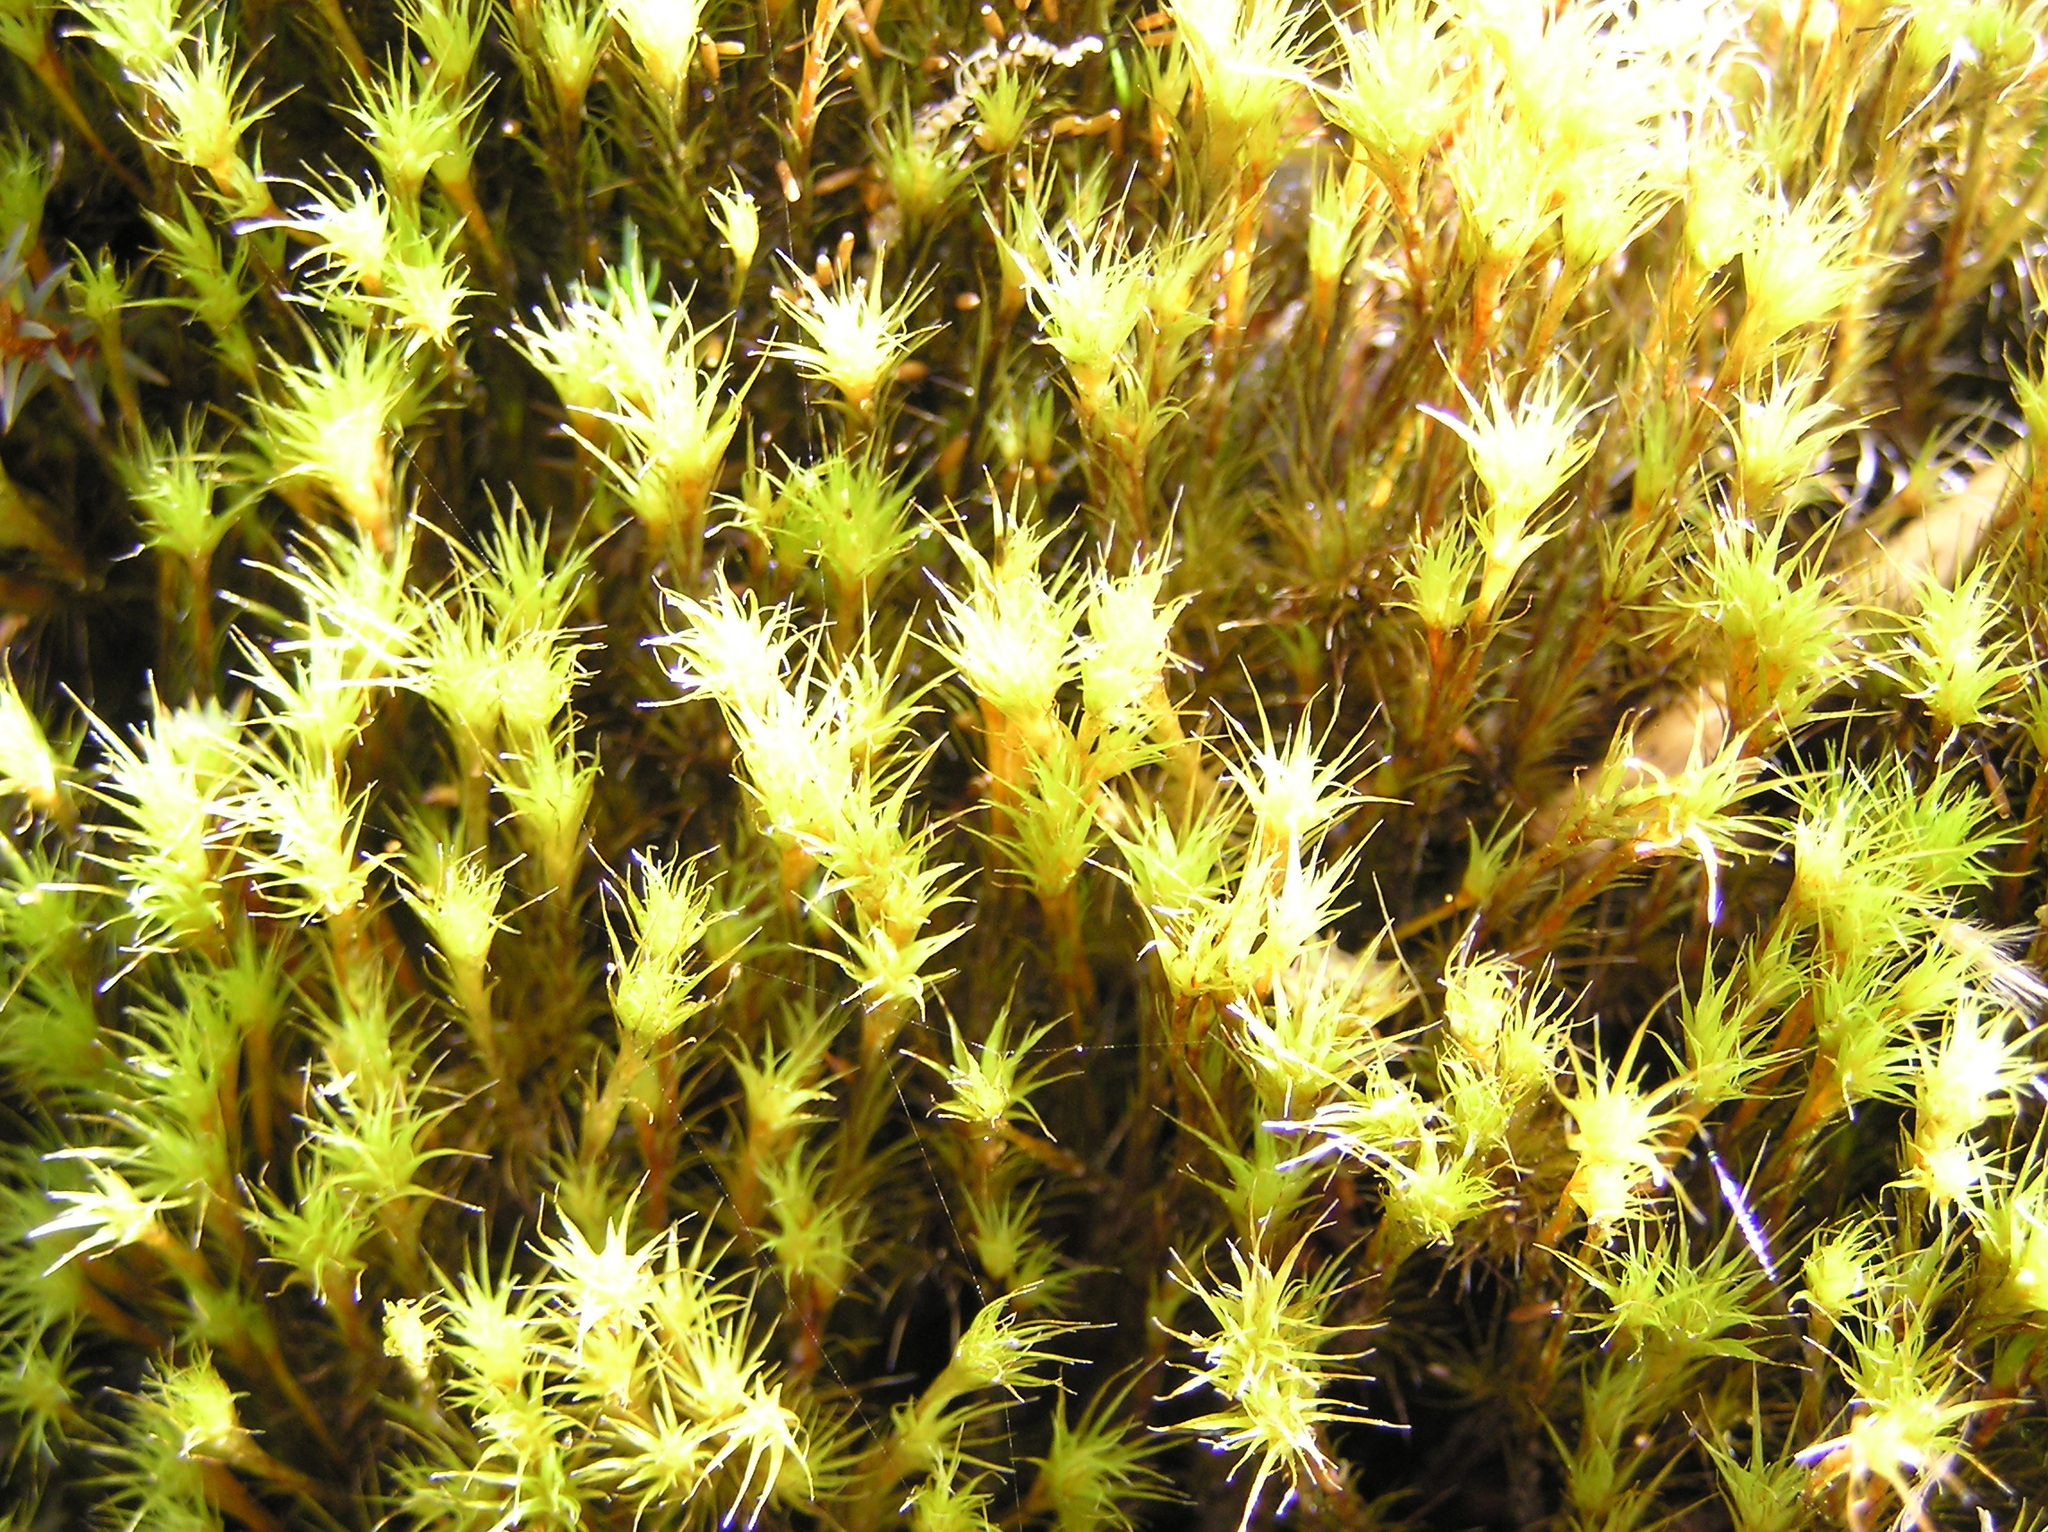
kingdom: Plantae
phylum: Bryophyta
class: Bryopsida
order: Dicranales
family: Leucobryaceae
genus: Campylopus
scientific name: Campylopus clavatus
